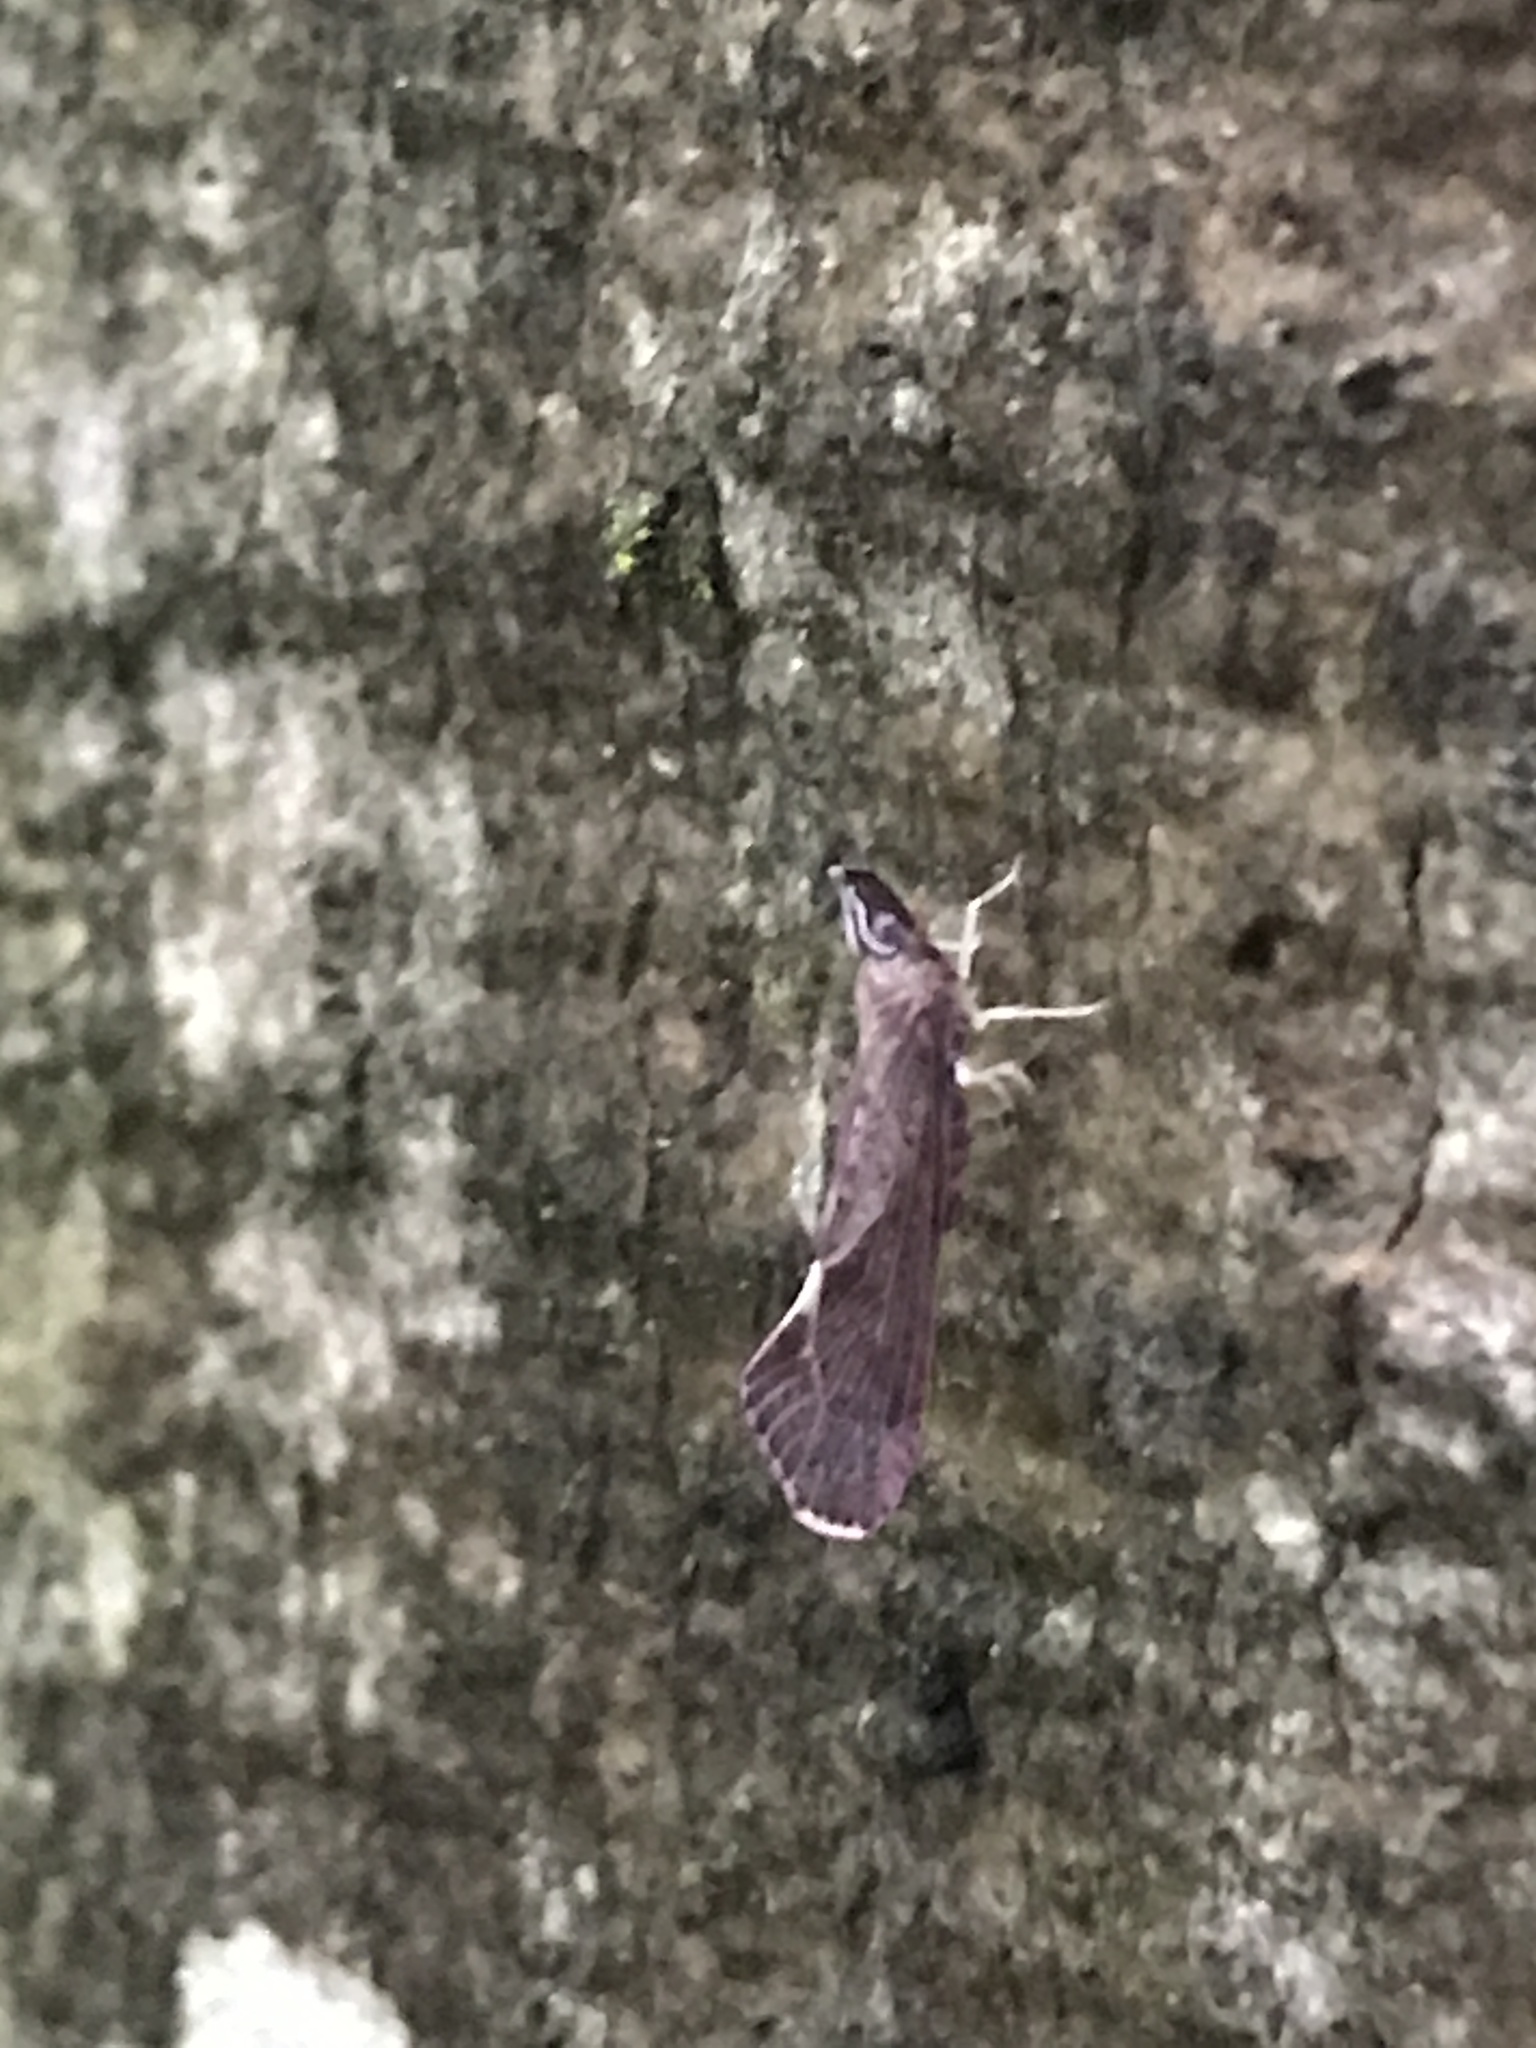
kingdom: Animalia
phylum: Arthropoda
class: Insecta
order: Hemiptera
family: Derbidae
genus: Apache
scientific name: Apache degeeri
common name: Red-fanned planthopper
